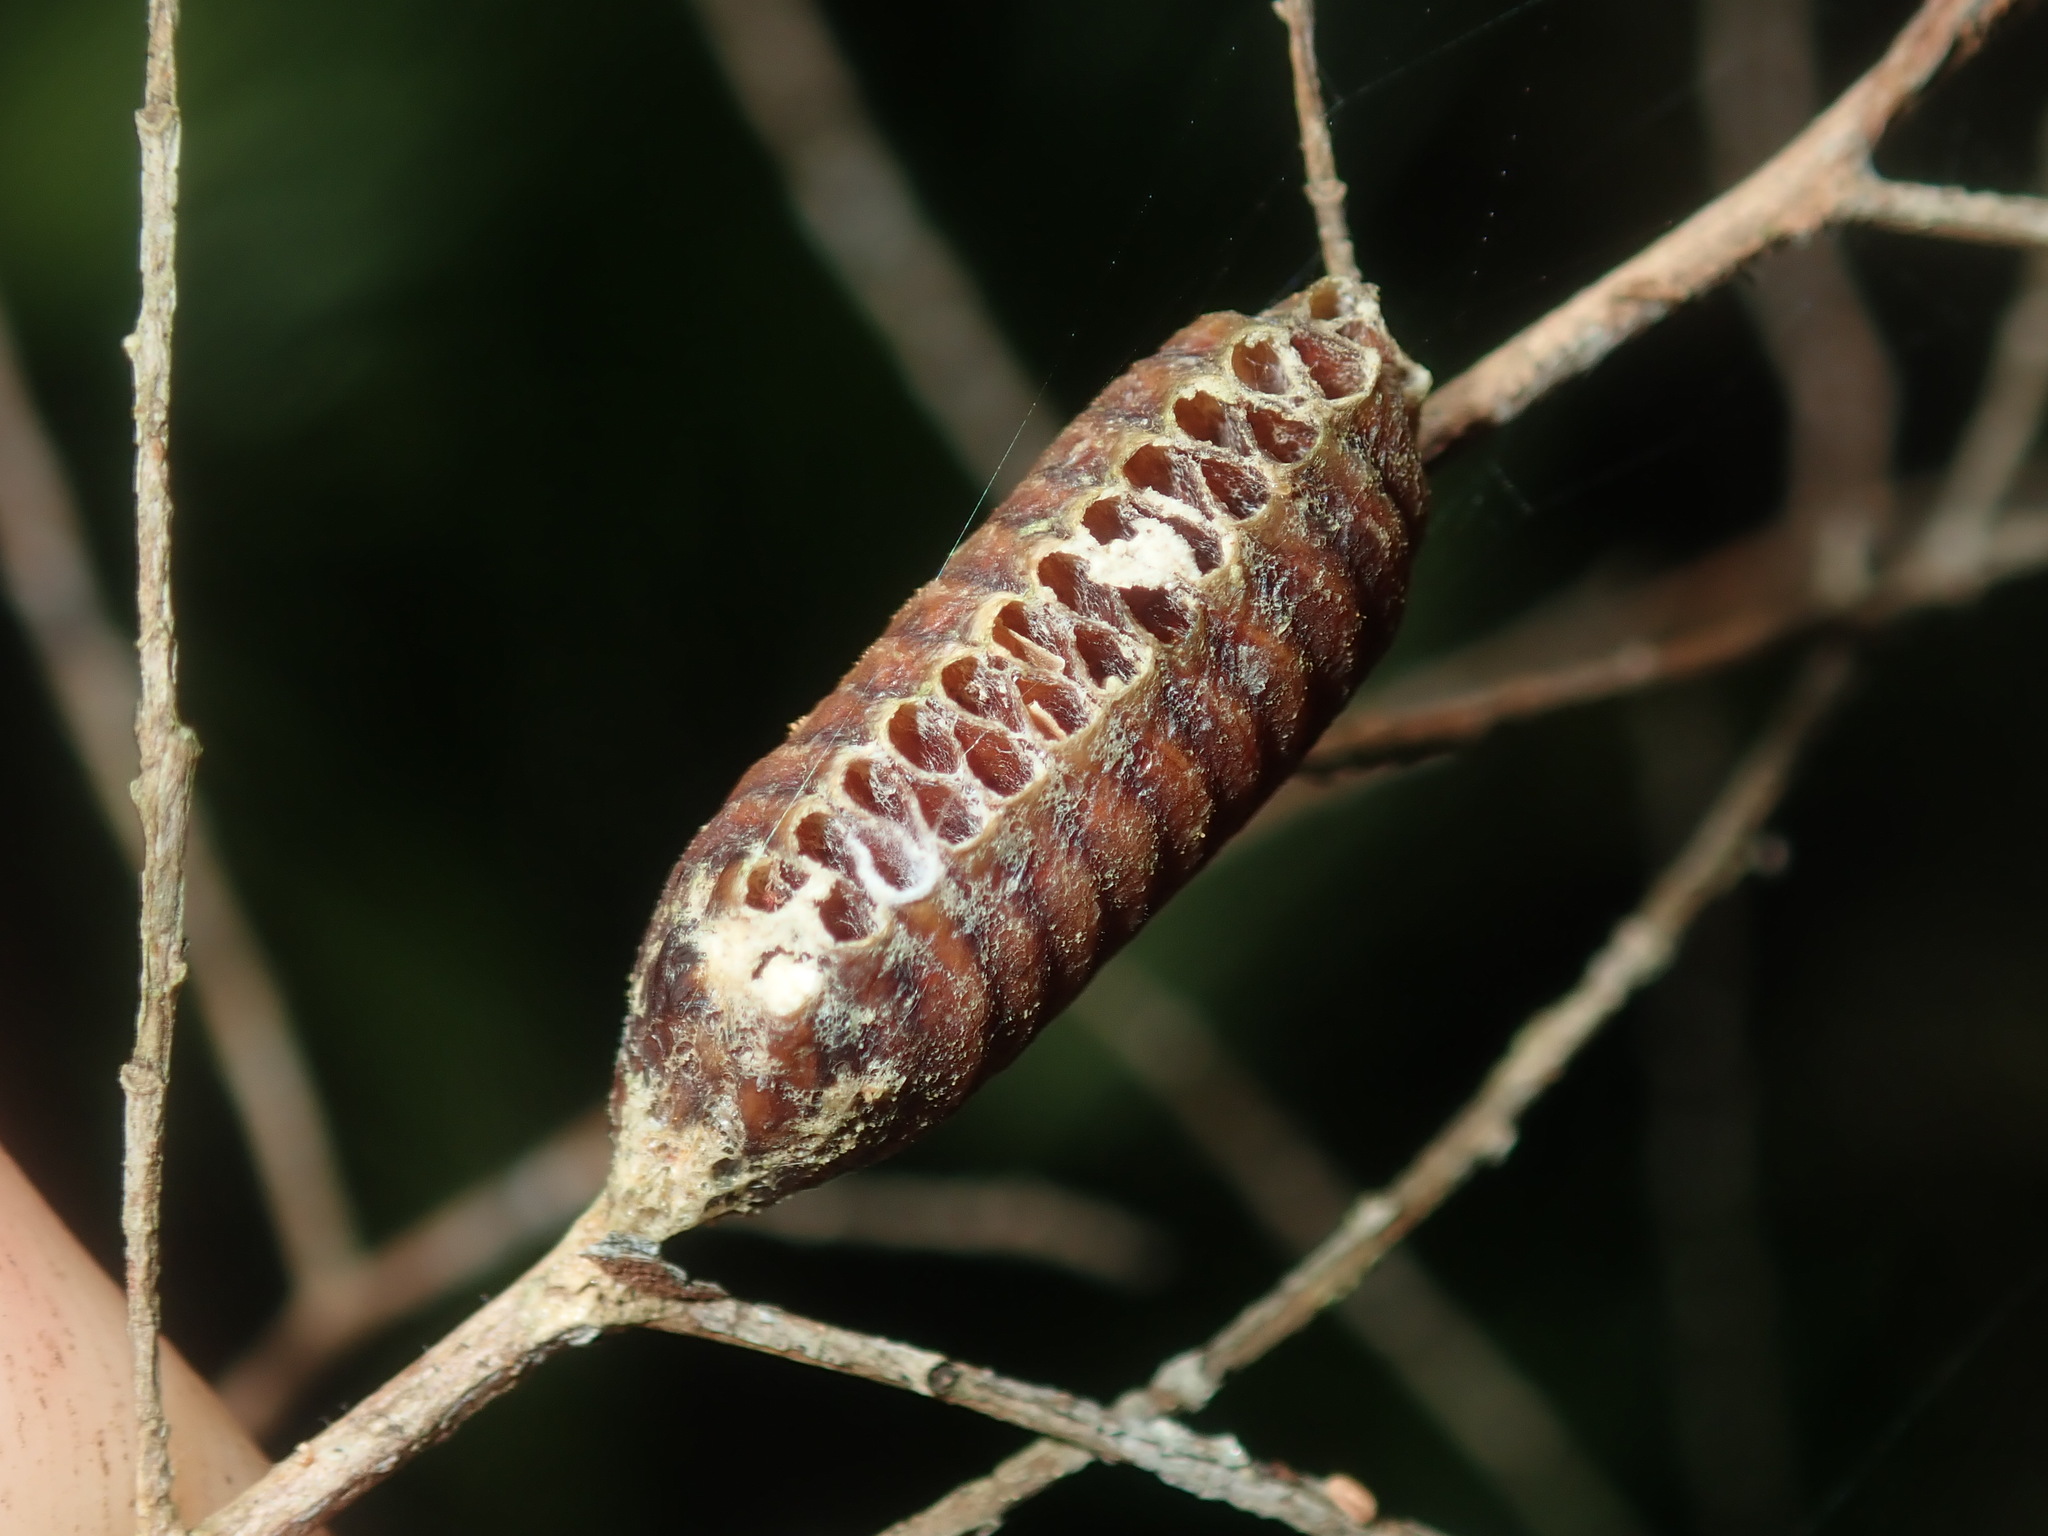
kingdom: Animalia
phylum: Arthropoda
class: Insecta
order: Mantodea
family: Mantidae
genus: Orthodera
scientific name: Orthodera ministralis
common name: Mantis
